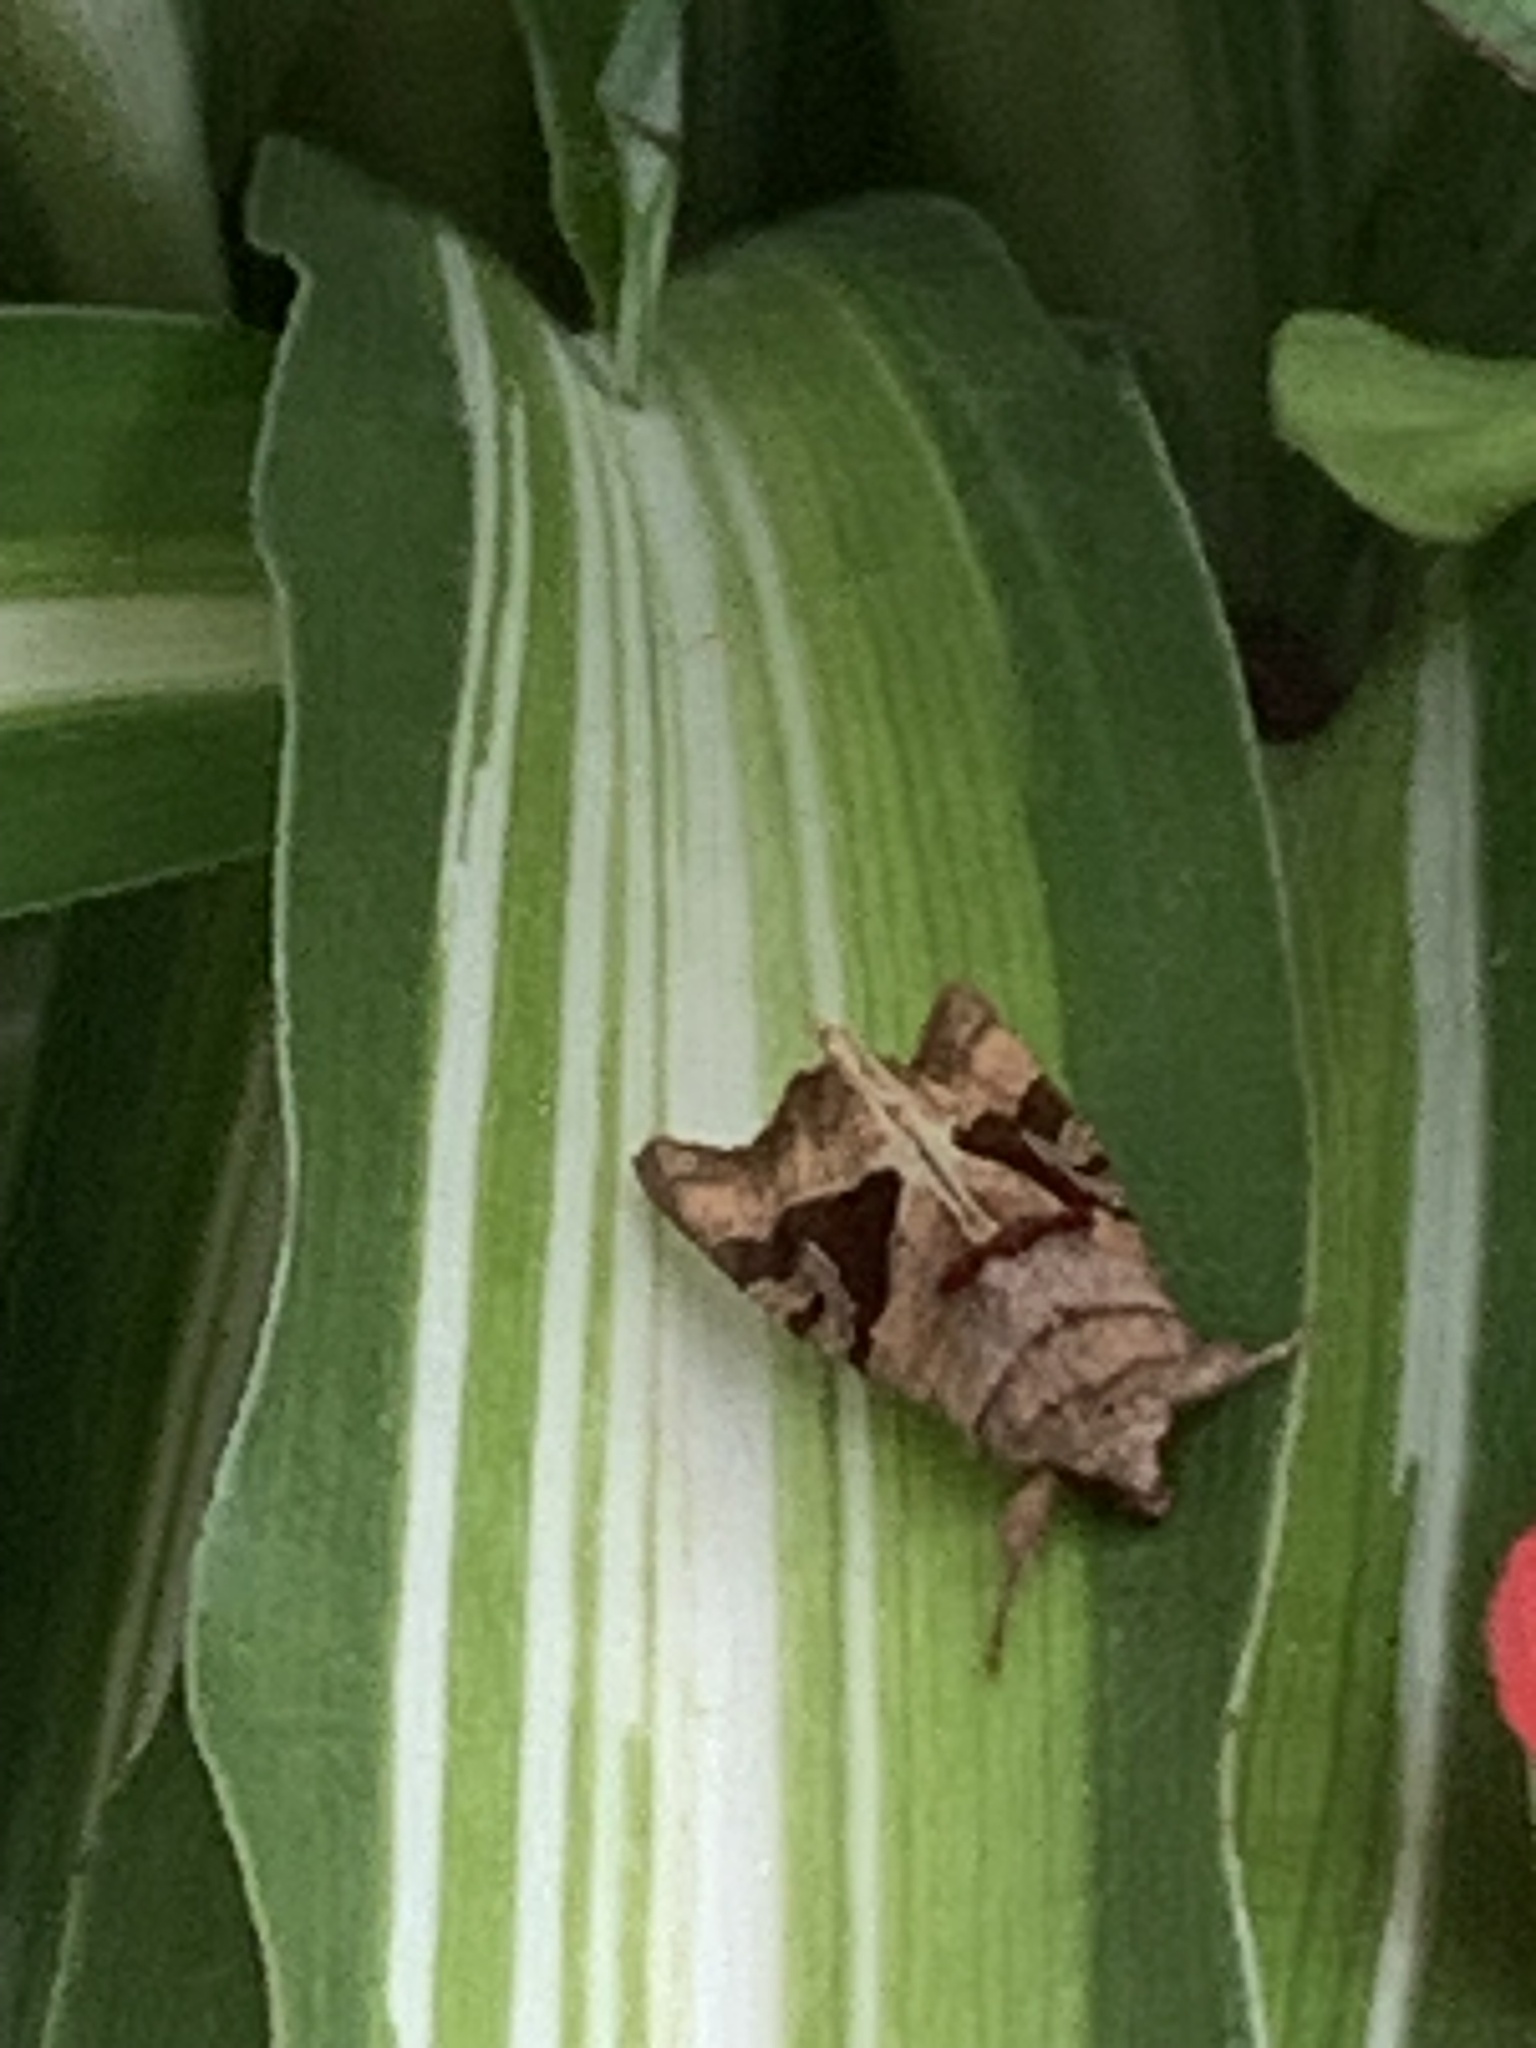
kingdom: Animalia
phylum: Arthropoda
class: Insecta
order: Lepidoptera
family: Noctuidae
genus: Conservula
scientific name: Conservula anodonta
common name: Sharp angle shades
